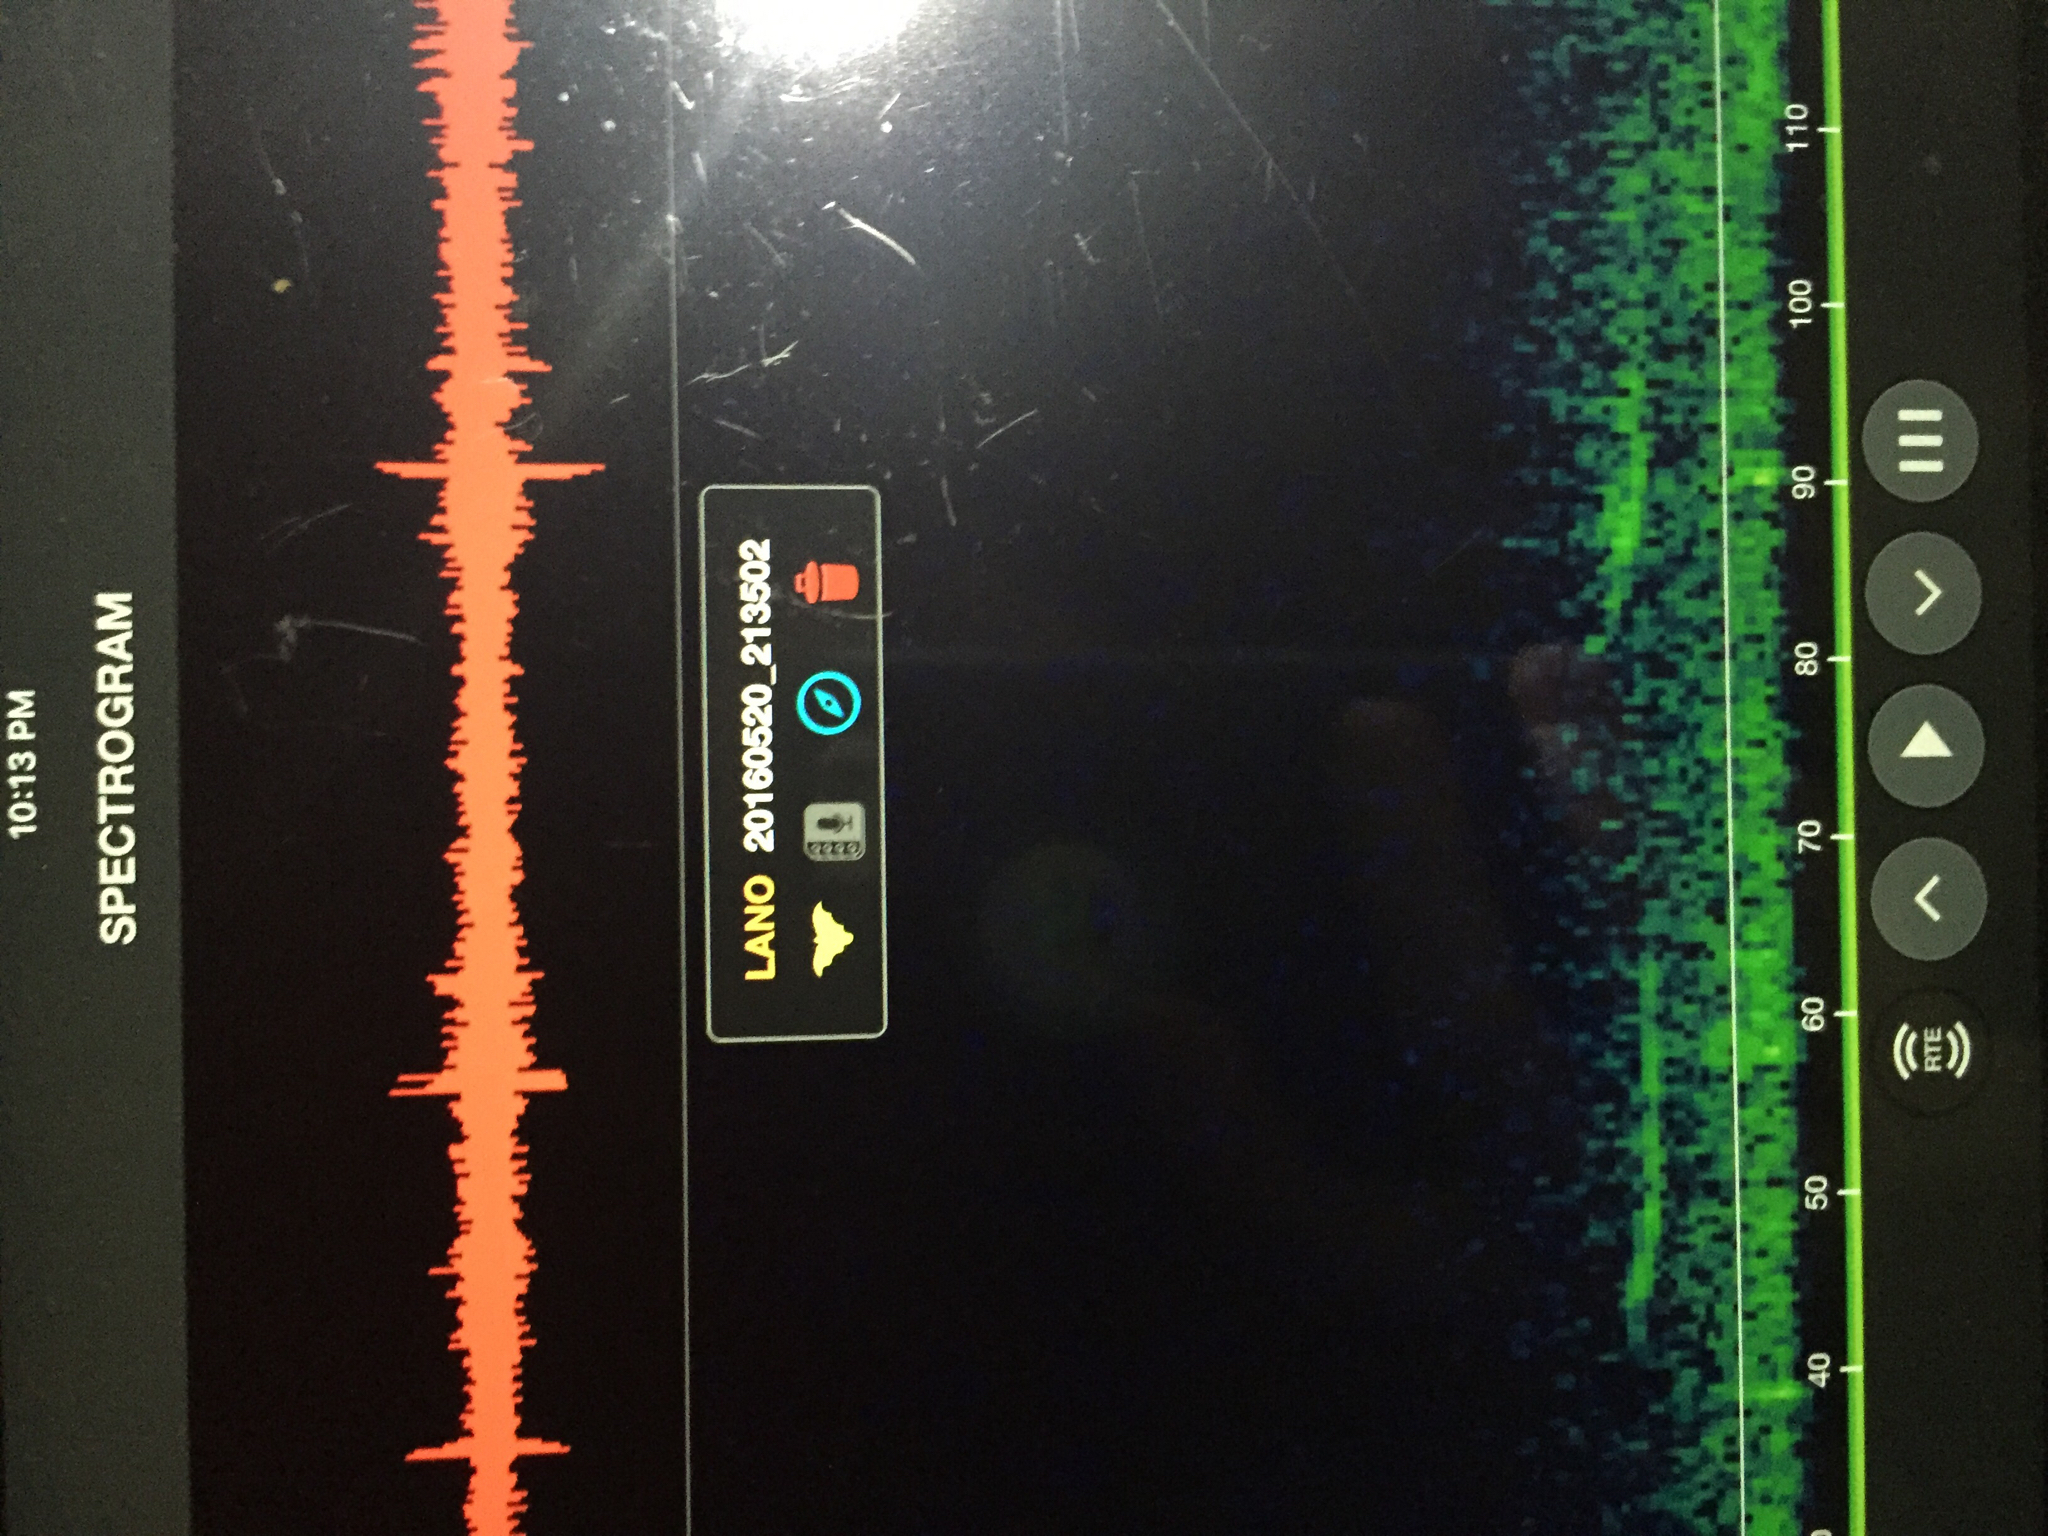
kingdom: Animalia
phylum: Chordata
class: Mammalia
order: Chiroptera
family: Vespertilionidae
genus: Lasionycteris
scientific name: Lasionycteris noctivagans
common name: Silver-haired bat
